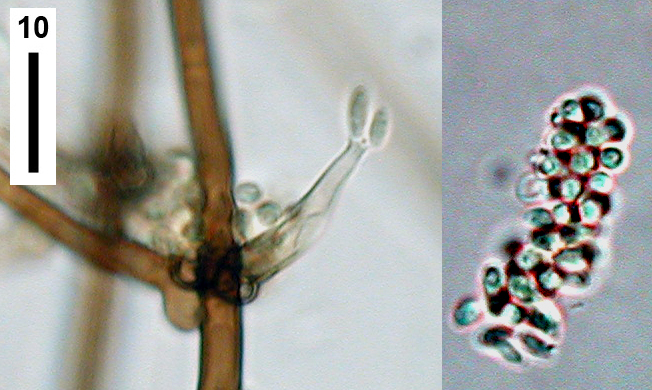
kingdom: Fungi
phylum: Ascomycota
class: Sordariomycetes
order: Chaetosphaeriales
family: Chaetosphaeriaceae
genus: Gonytrichum
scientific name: Gonytrichum macrocladum
